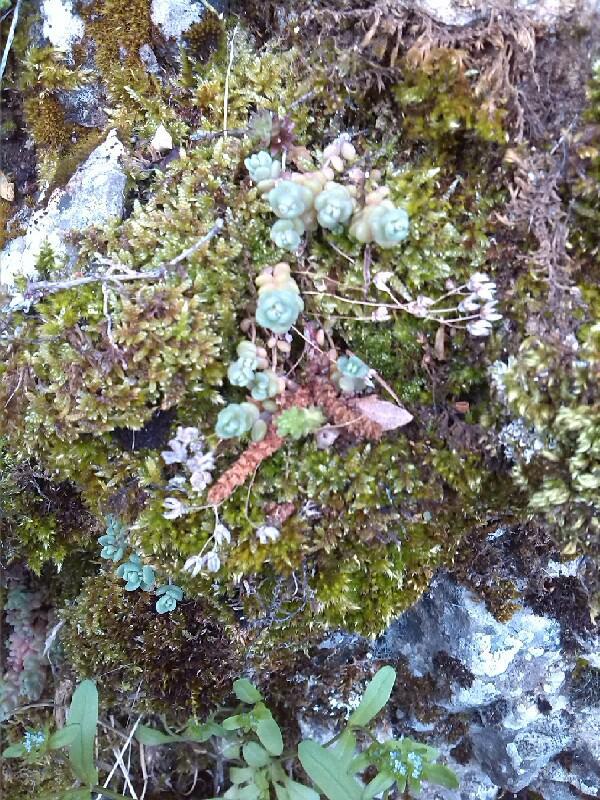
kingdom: Plantae
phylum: Tracheophyta
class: Magnoliopsida
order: Saxifragales
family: Crassulaceae
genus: Sedum
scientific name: Sedum dasyphyllum
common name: Thick-leaf stonecrop
